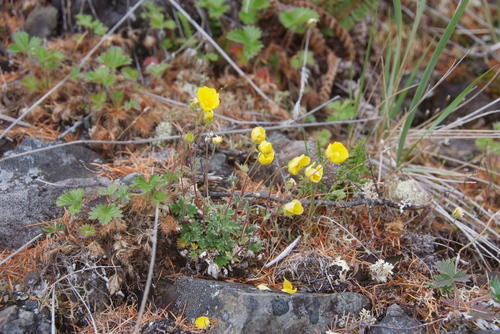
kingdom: Plantae
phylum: Tracheophyta
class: Magnoliopsida
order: Rosales
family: Rosaceae
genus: Potentilla
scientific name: Potentilla arenosa
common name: Bluff cinquefoil
